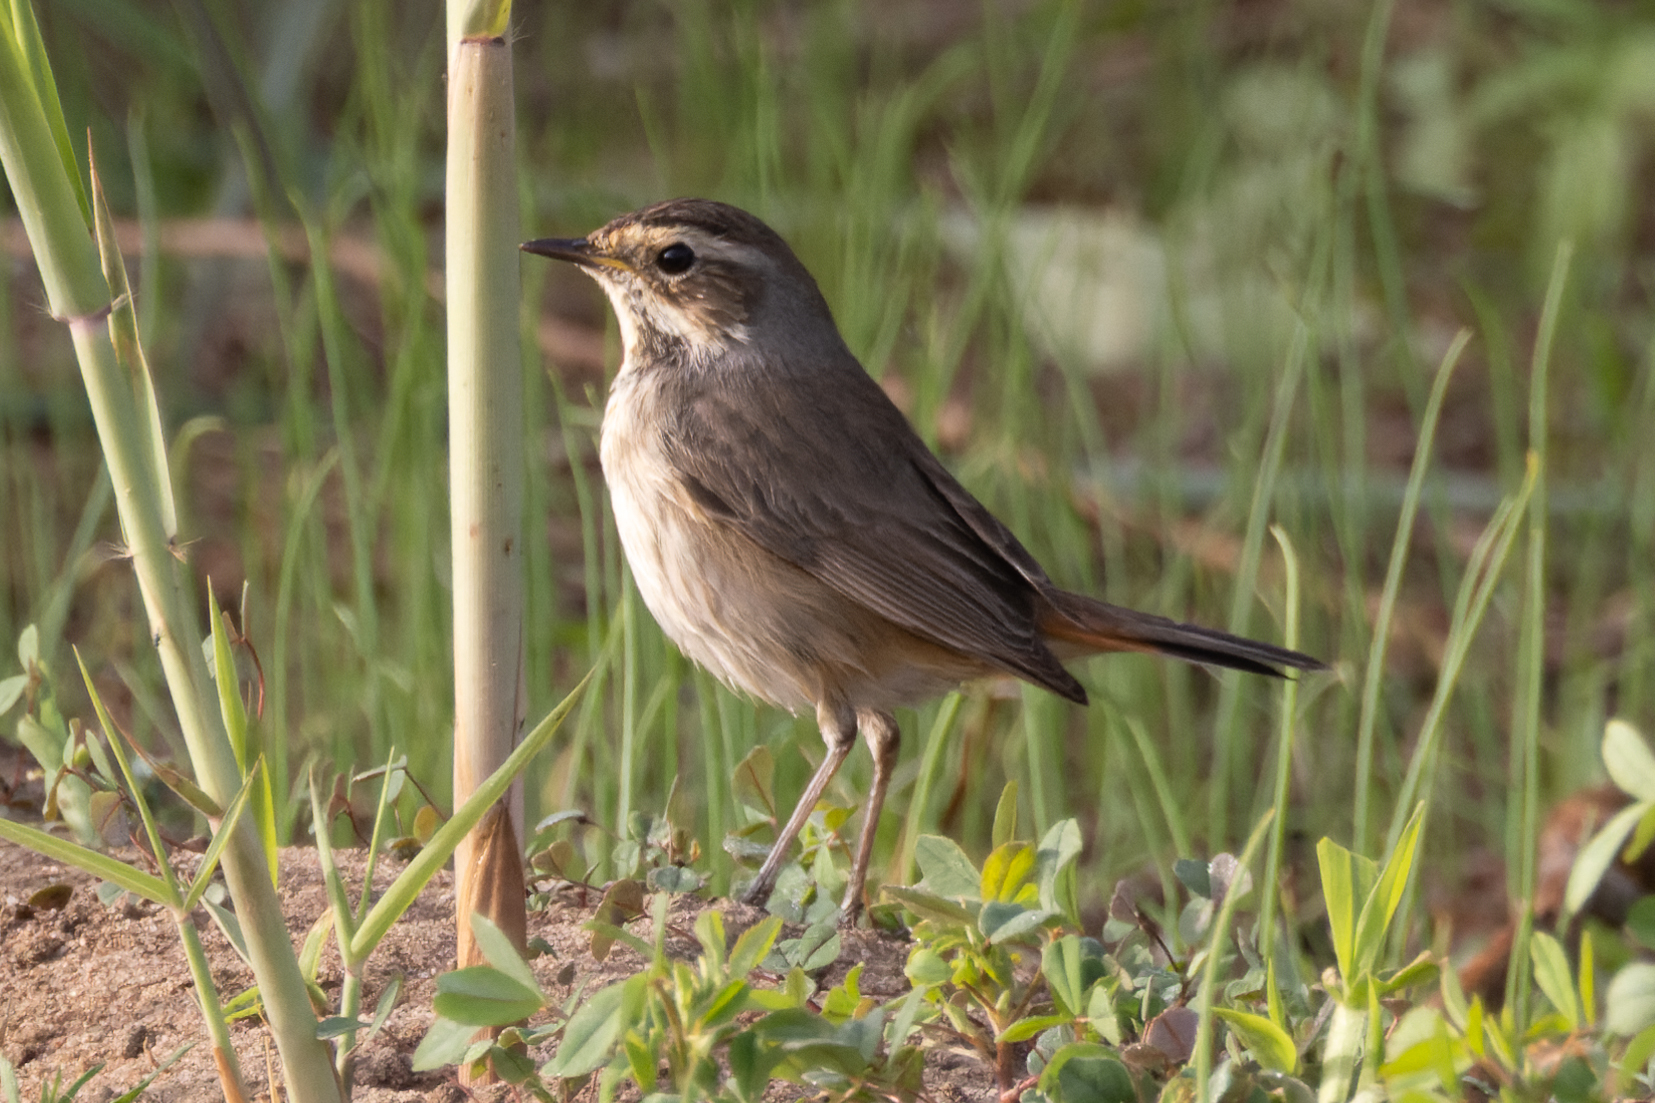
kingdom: Animalia
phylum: Chordata
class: Aves
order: Passeriformes
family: Muscicapidae
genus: Luscinia
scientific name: Luscinia svecica
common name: Bluethroat
